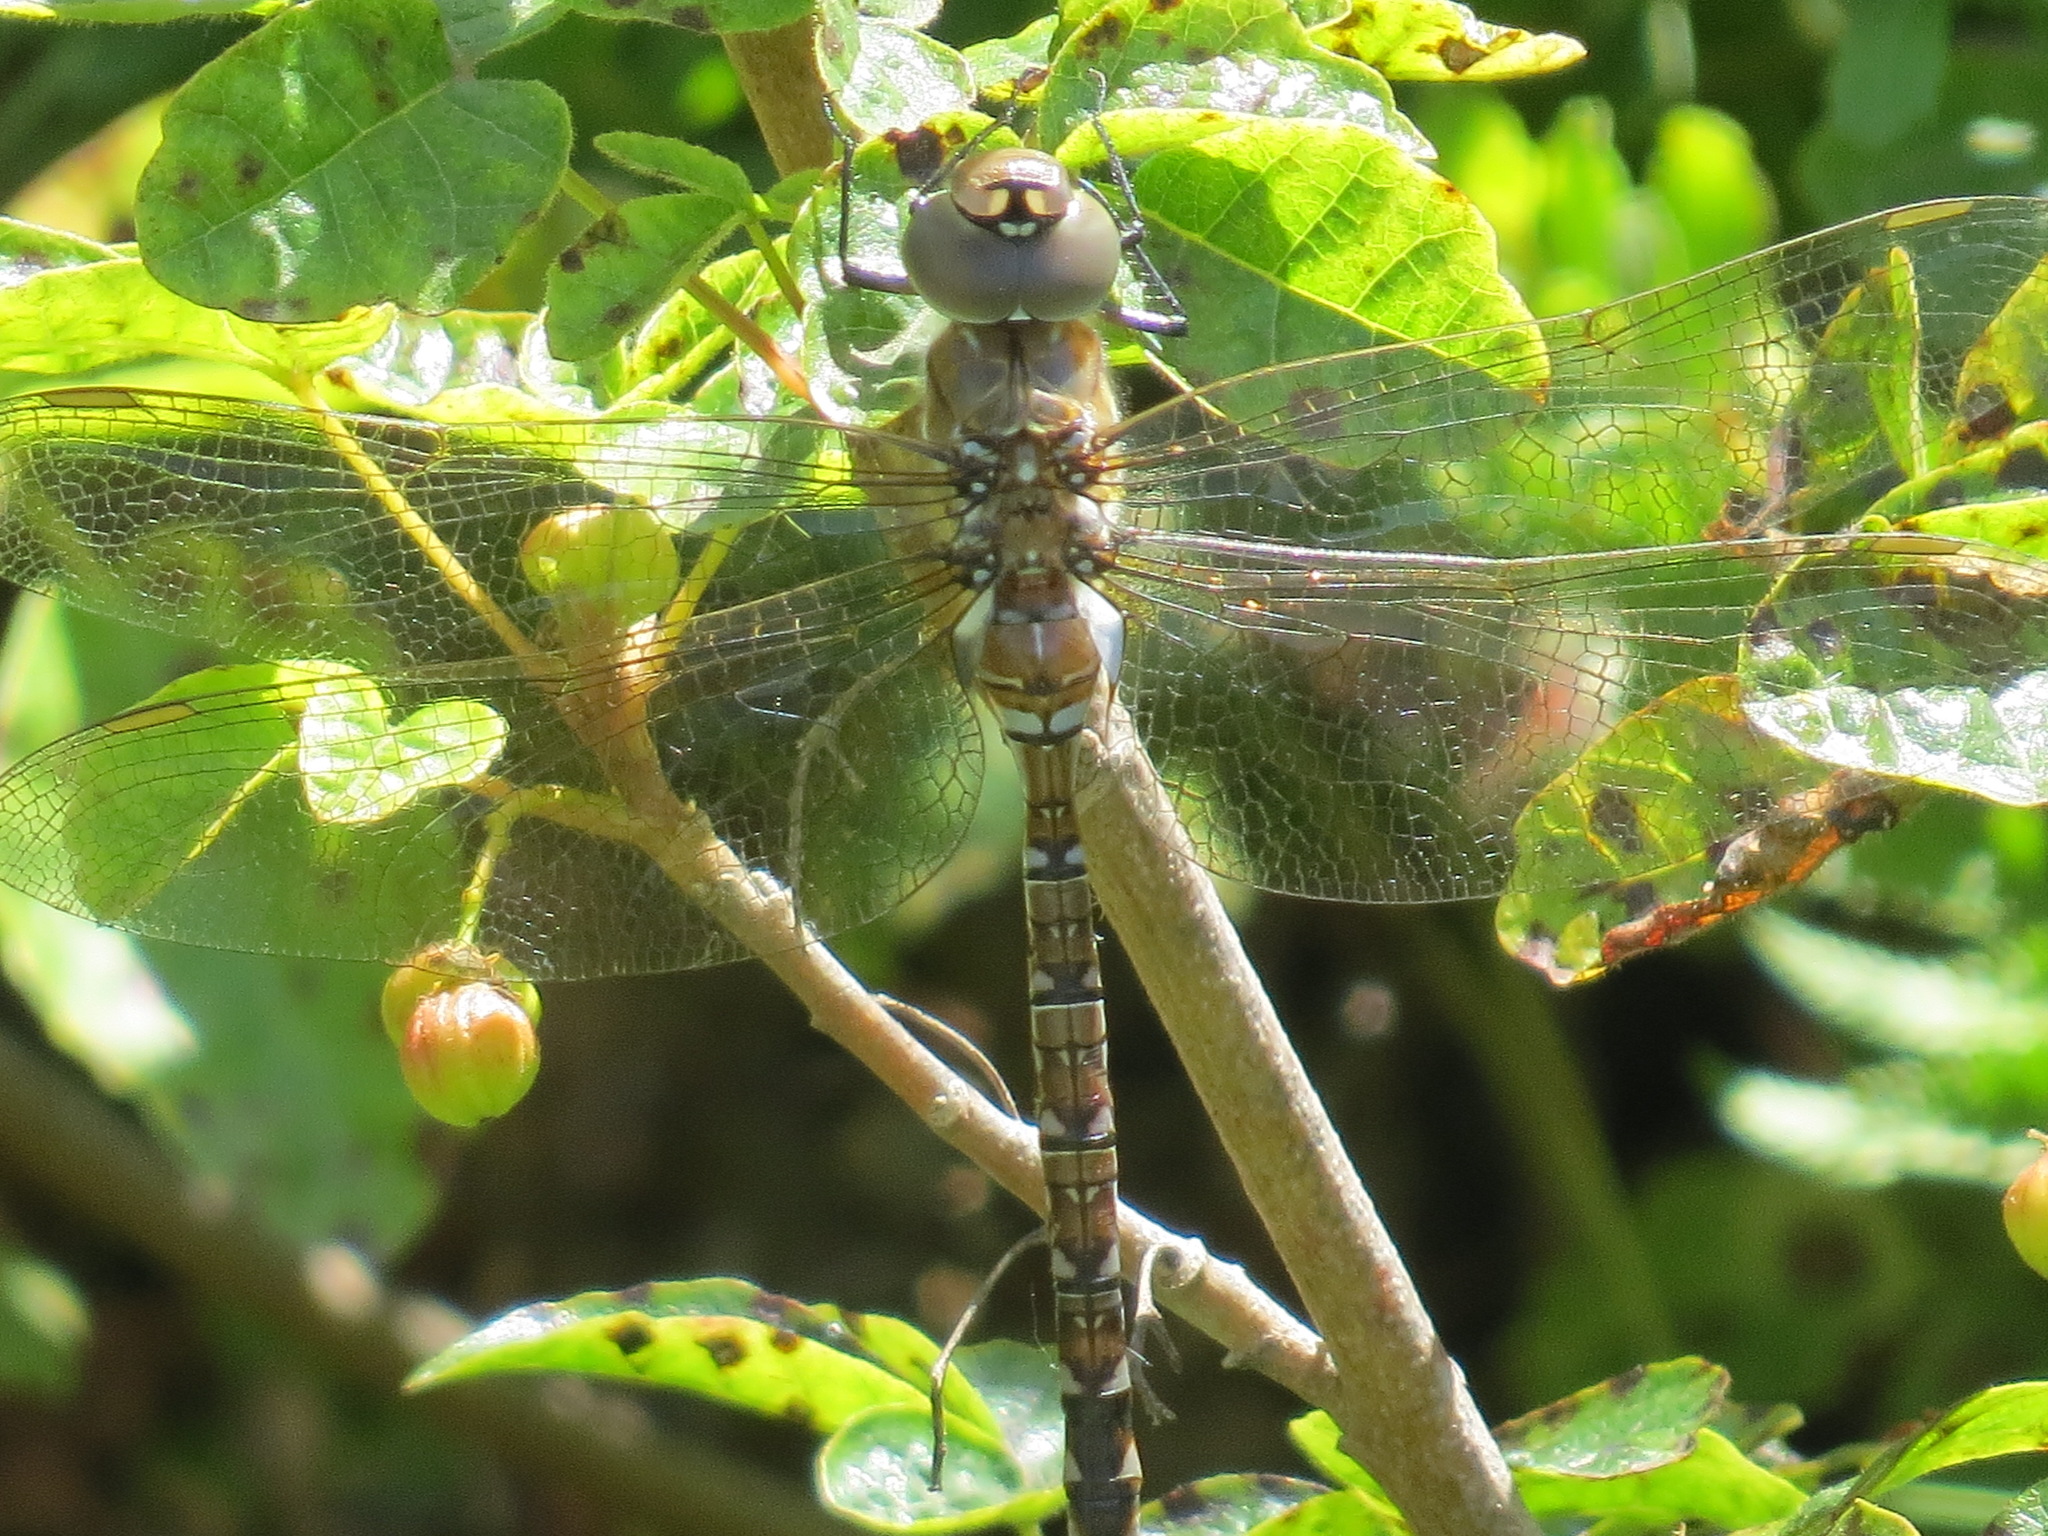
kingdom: Animalia
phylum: Arthropoda
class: Insecta
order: Odonata
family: Aeshnidae
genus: Rhionaeschna
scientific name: Rhionaeschna multicolor
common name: Blue-eyed darner
